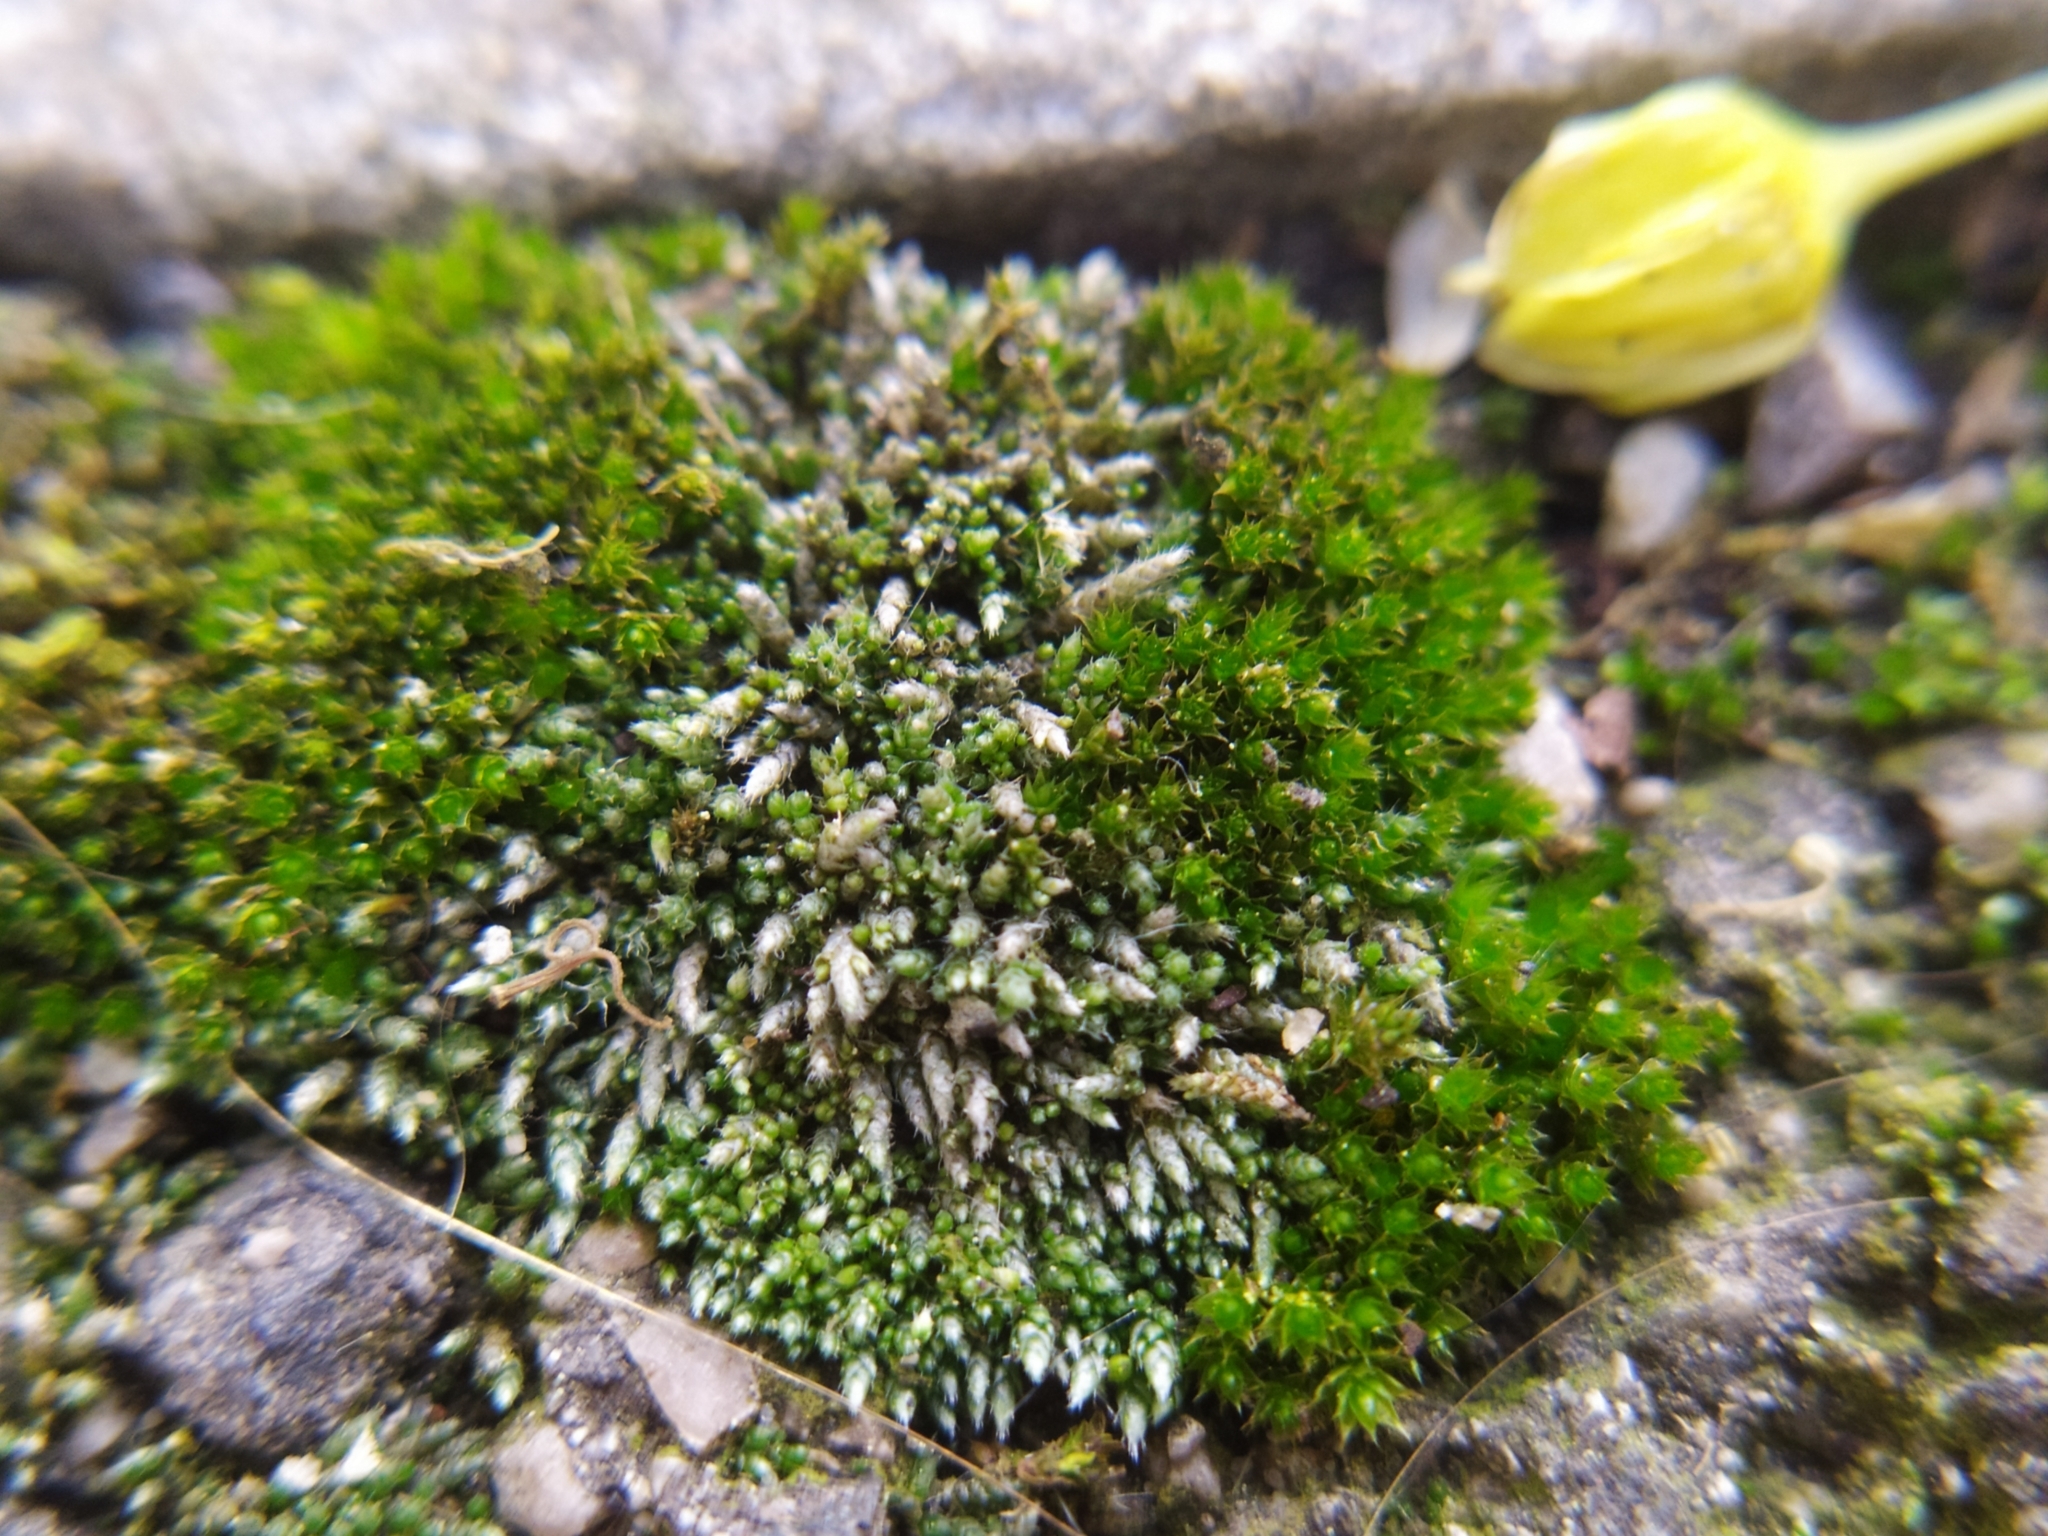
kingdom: Plantae
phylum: Bryophyta
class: Bryopsida
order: Bryales
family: Bryaceae
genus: Bryum
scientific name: Bryum argenteum
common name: Silver-moss
